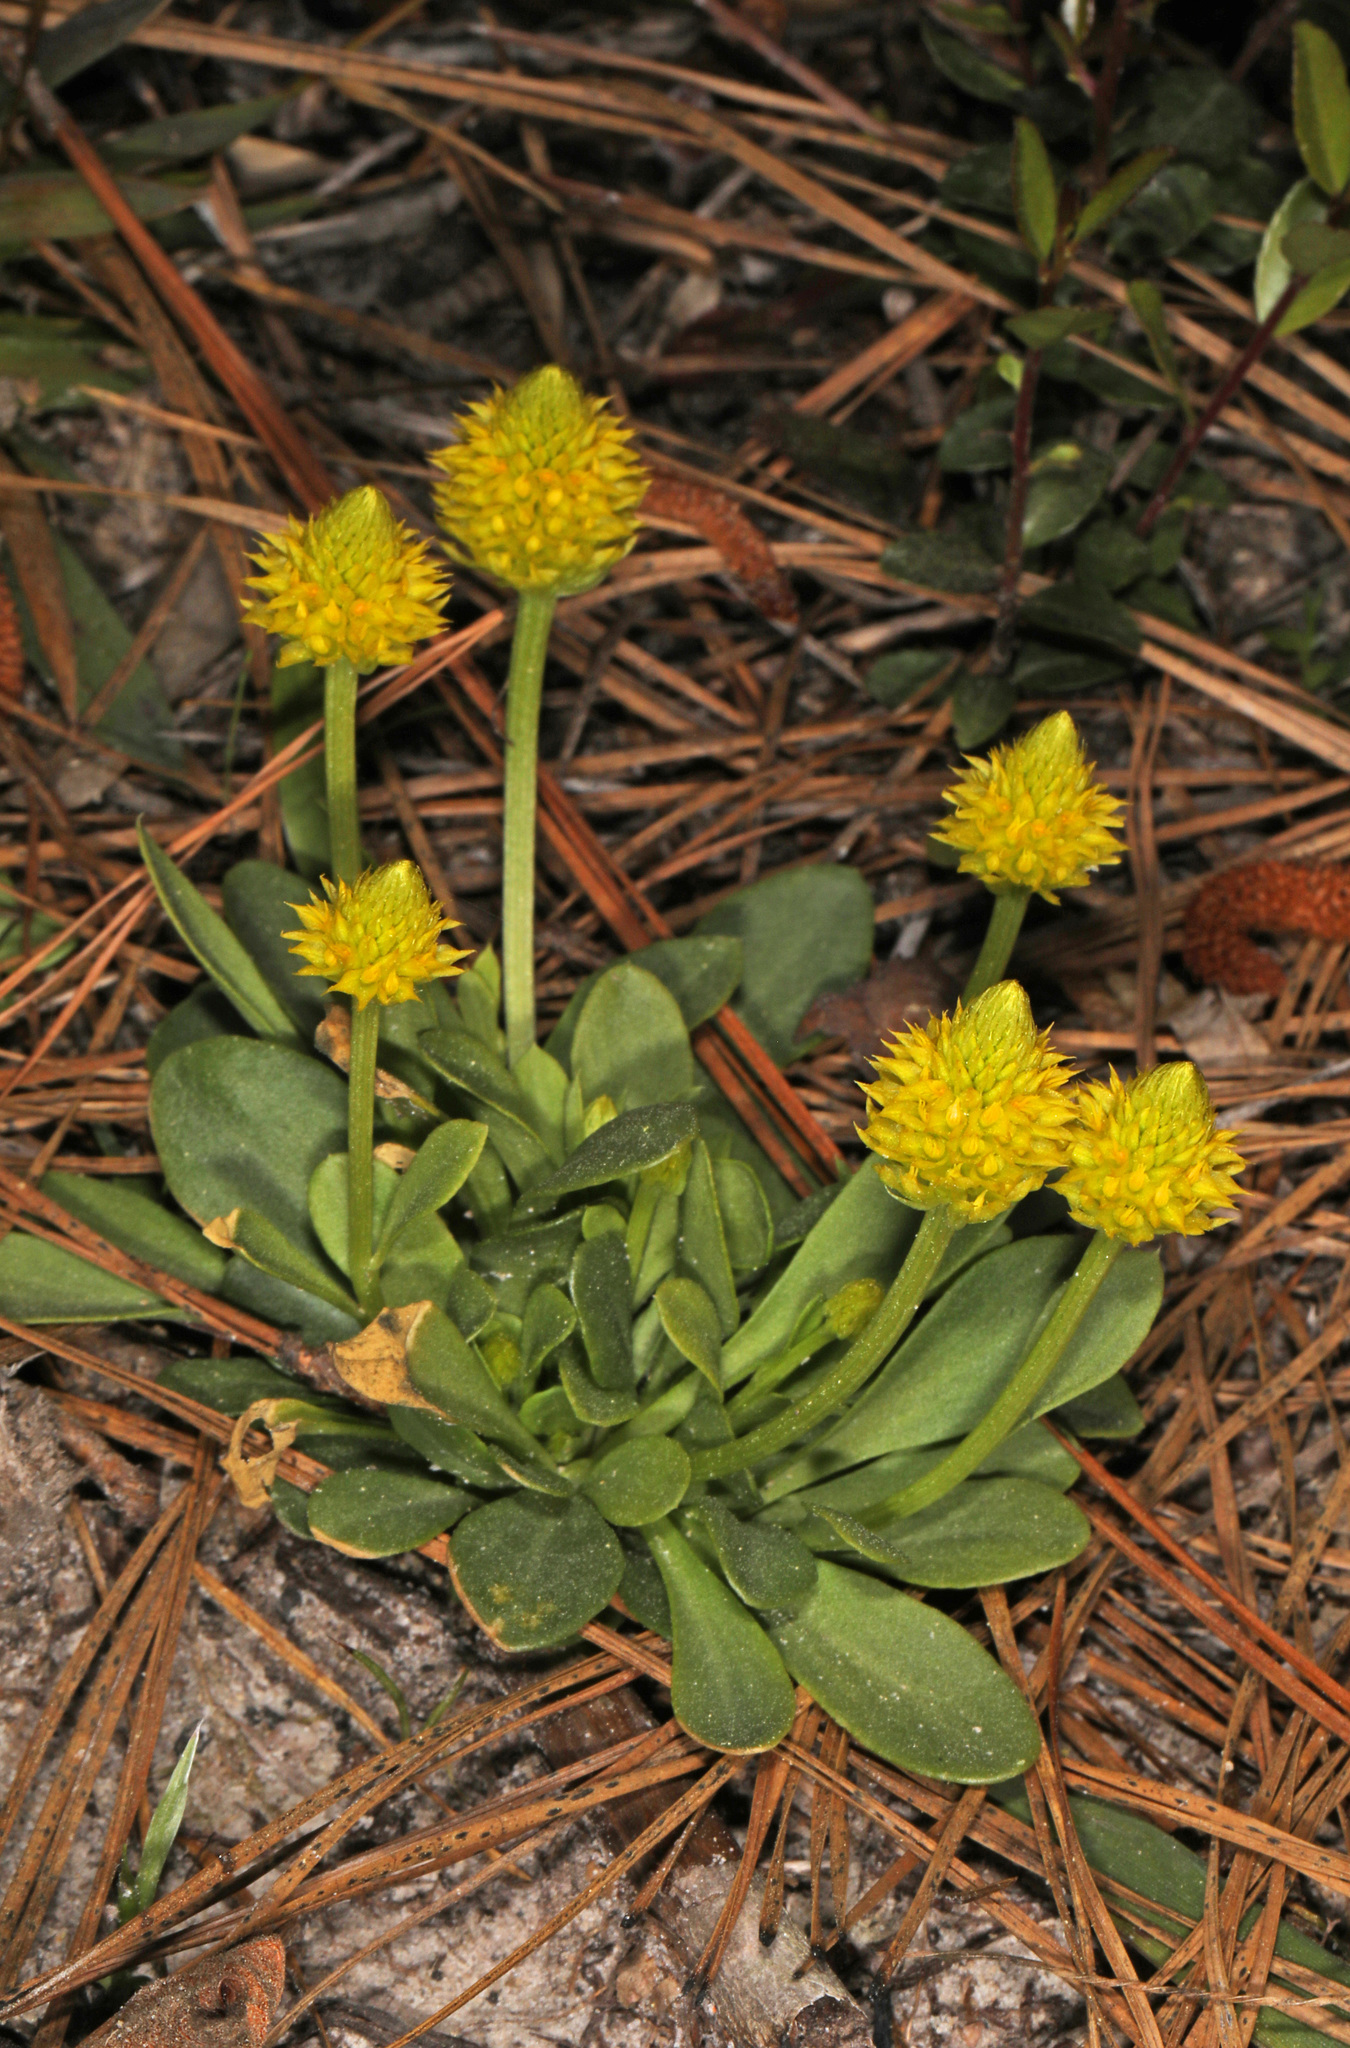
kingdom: Plantae
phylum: Tracheophyta
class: Magnoliopsida
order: Fabales
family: Polygalaceae
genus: Polygala
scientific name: Polygala nana
